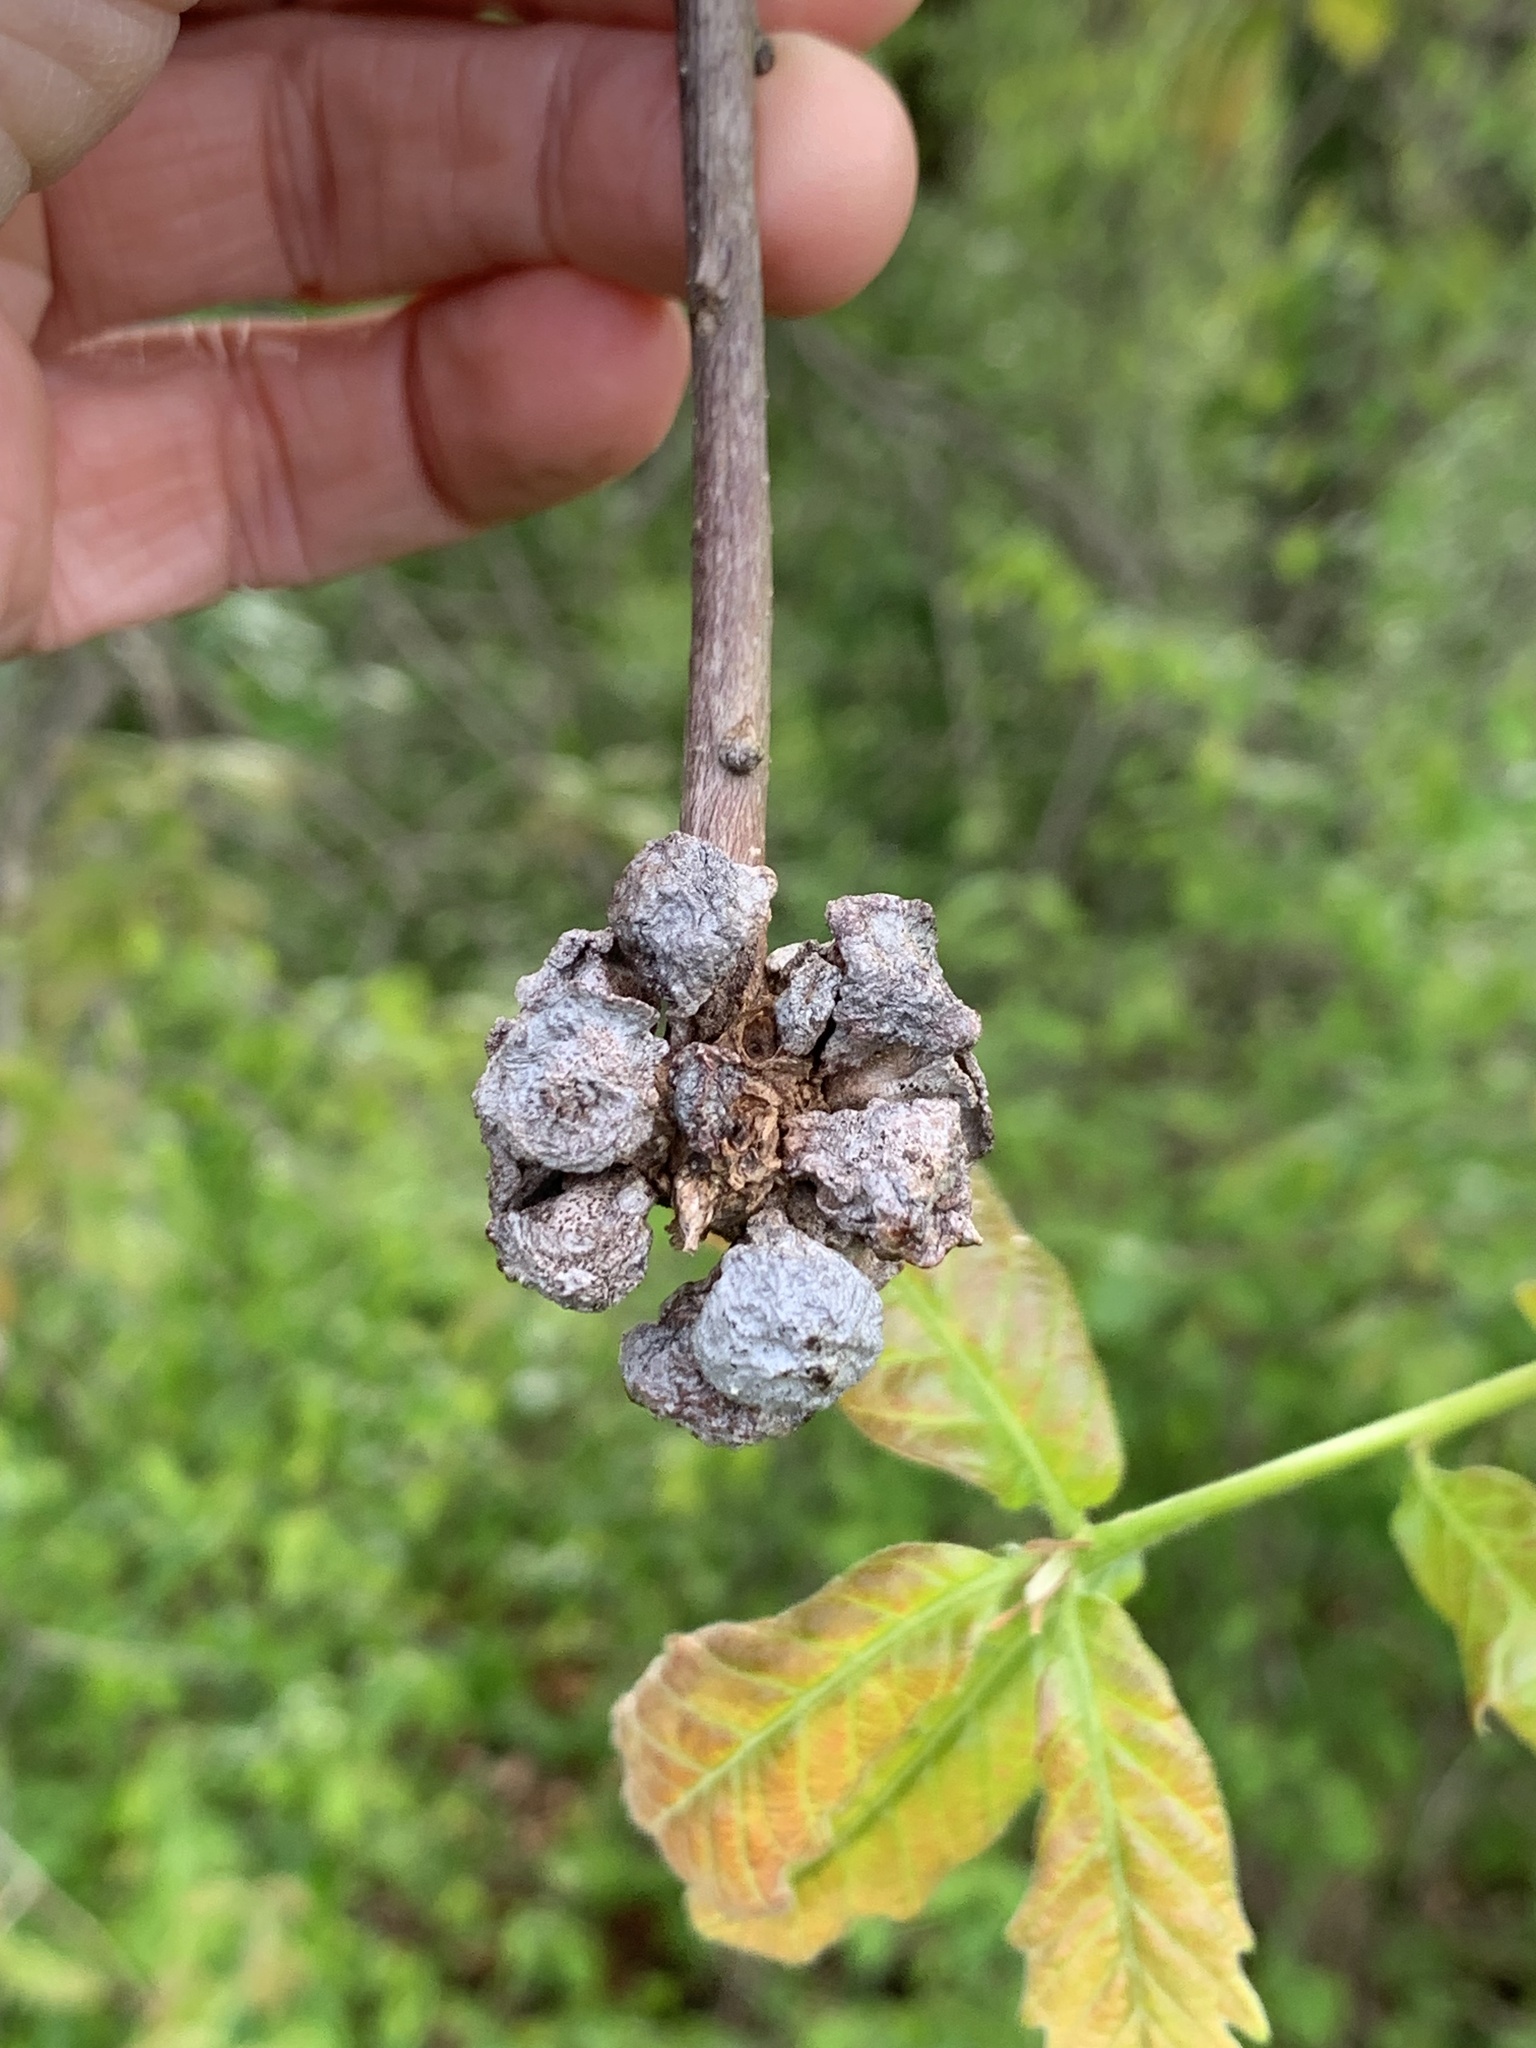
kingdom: Animalia
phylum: Arthropoda
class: Insecta
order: Hymenoptera
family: Cynipidae
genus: Andricus
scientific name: Andricus
